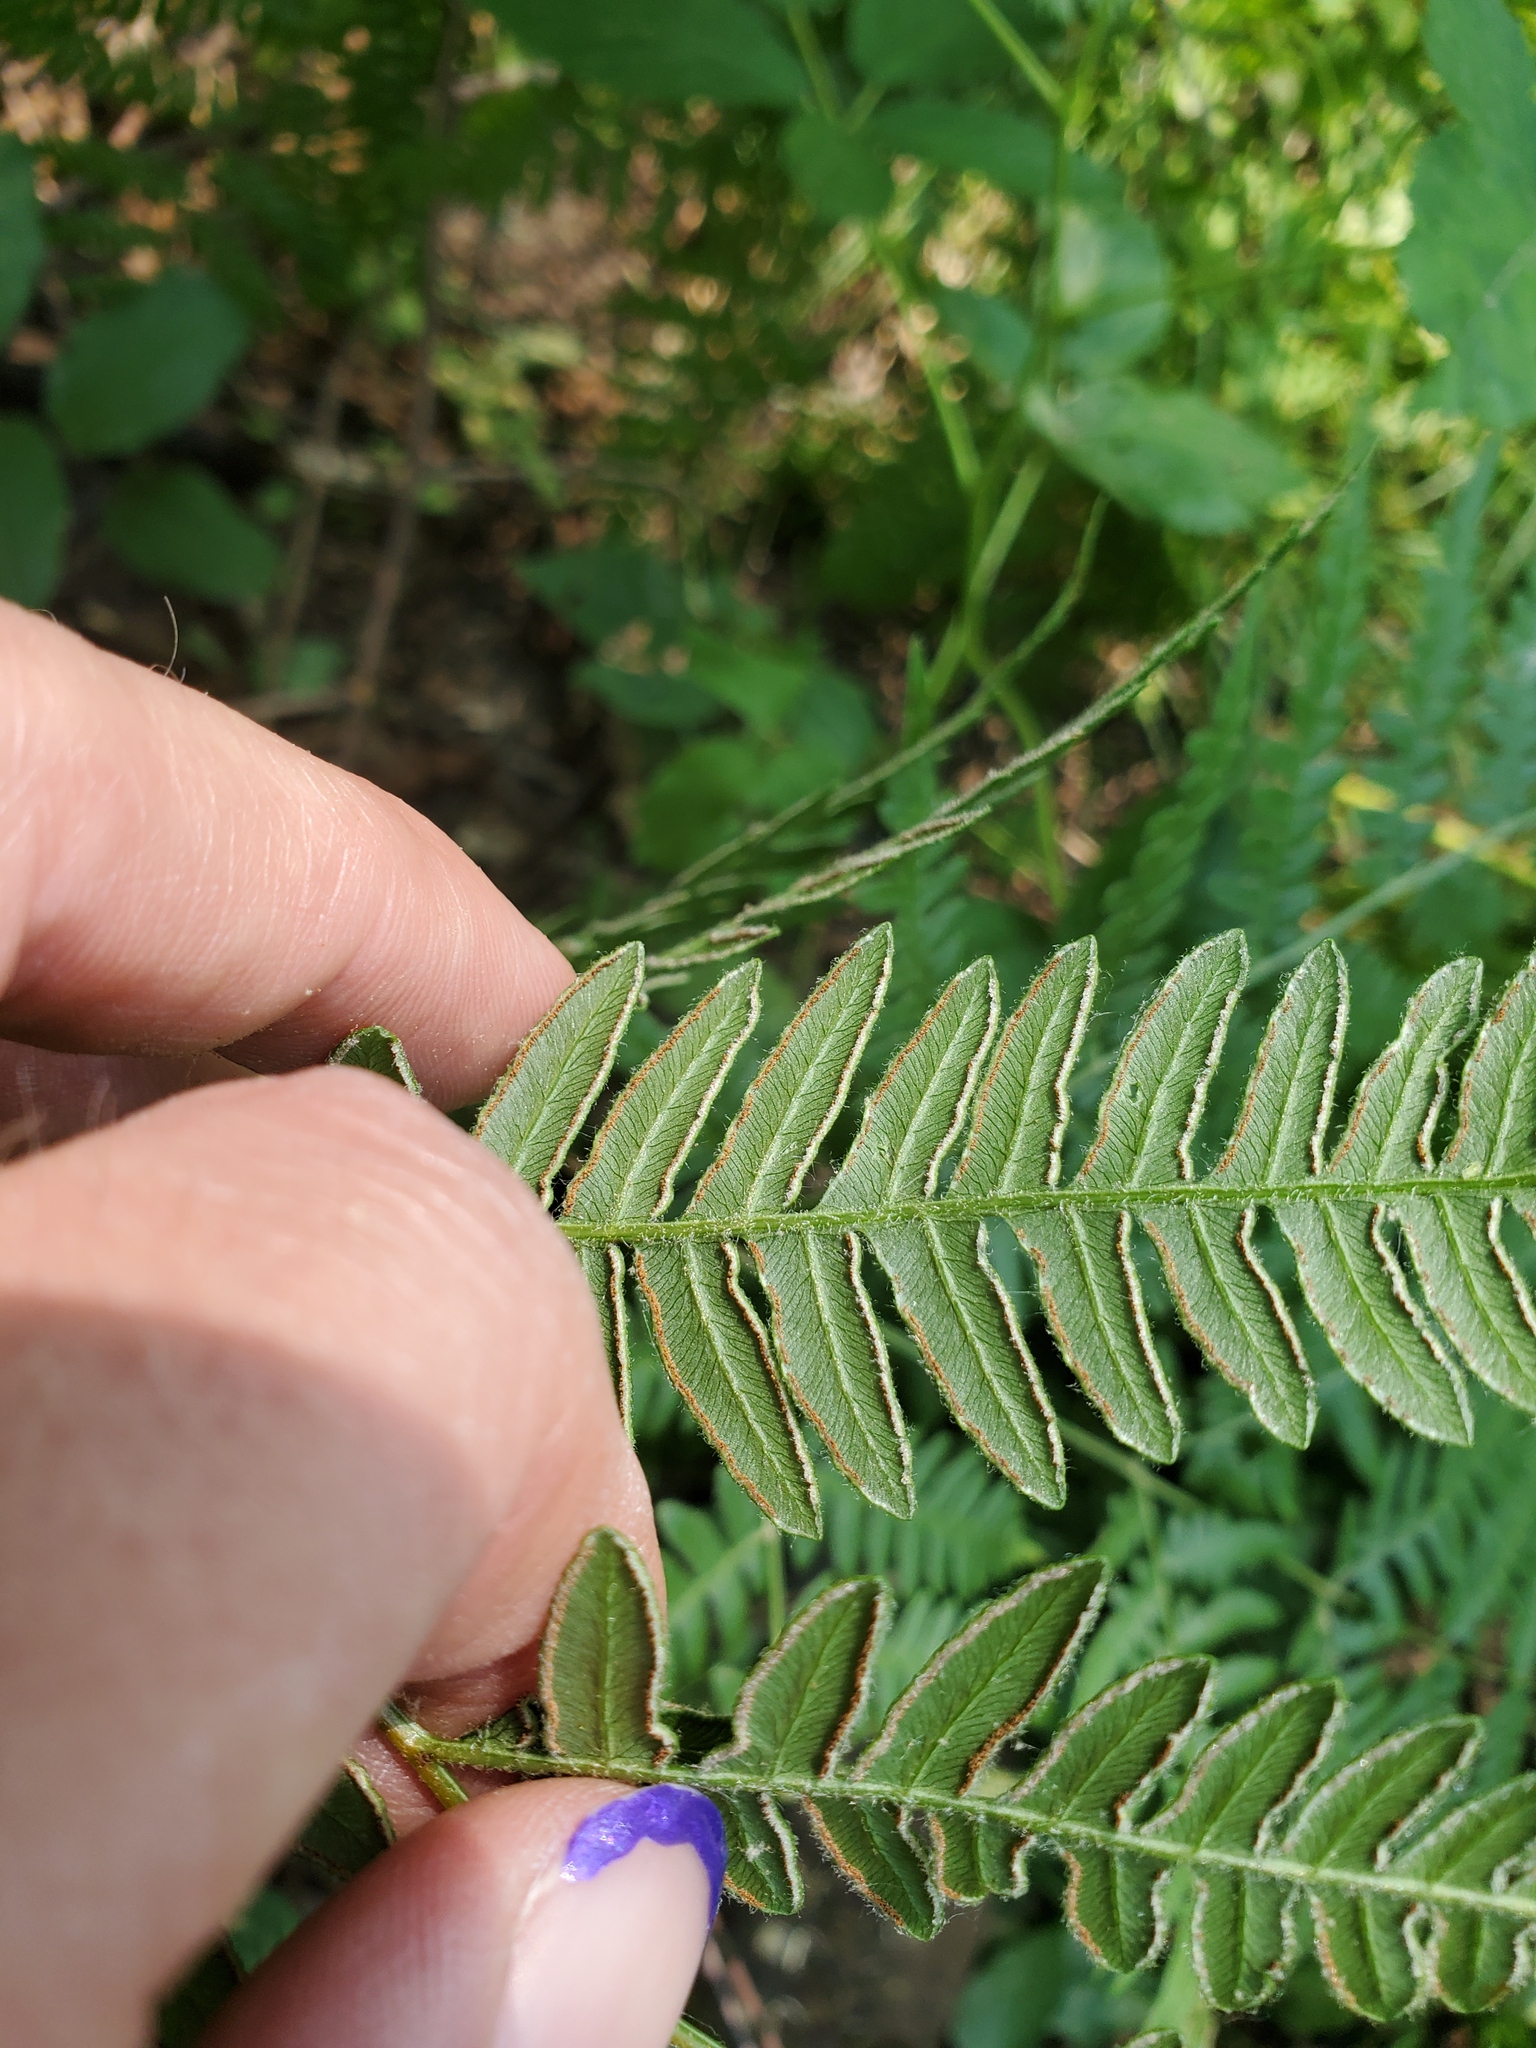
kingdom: Plantae
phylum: Tracheophyta
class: Polypodiopsida
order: Polypodiales
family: Dennstaedtiaceae
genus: Pteridium
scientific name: Pteridium aquilinum
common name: Bracken
